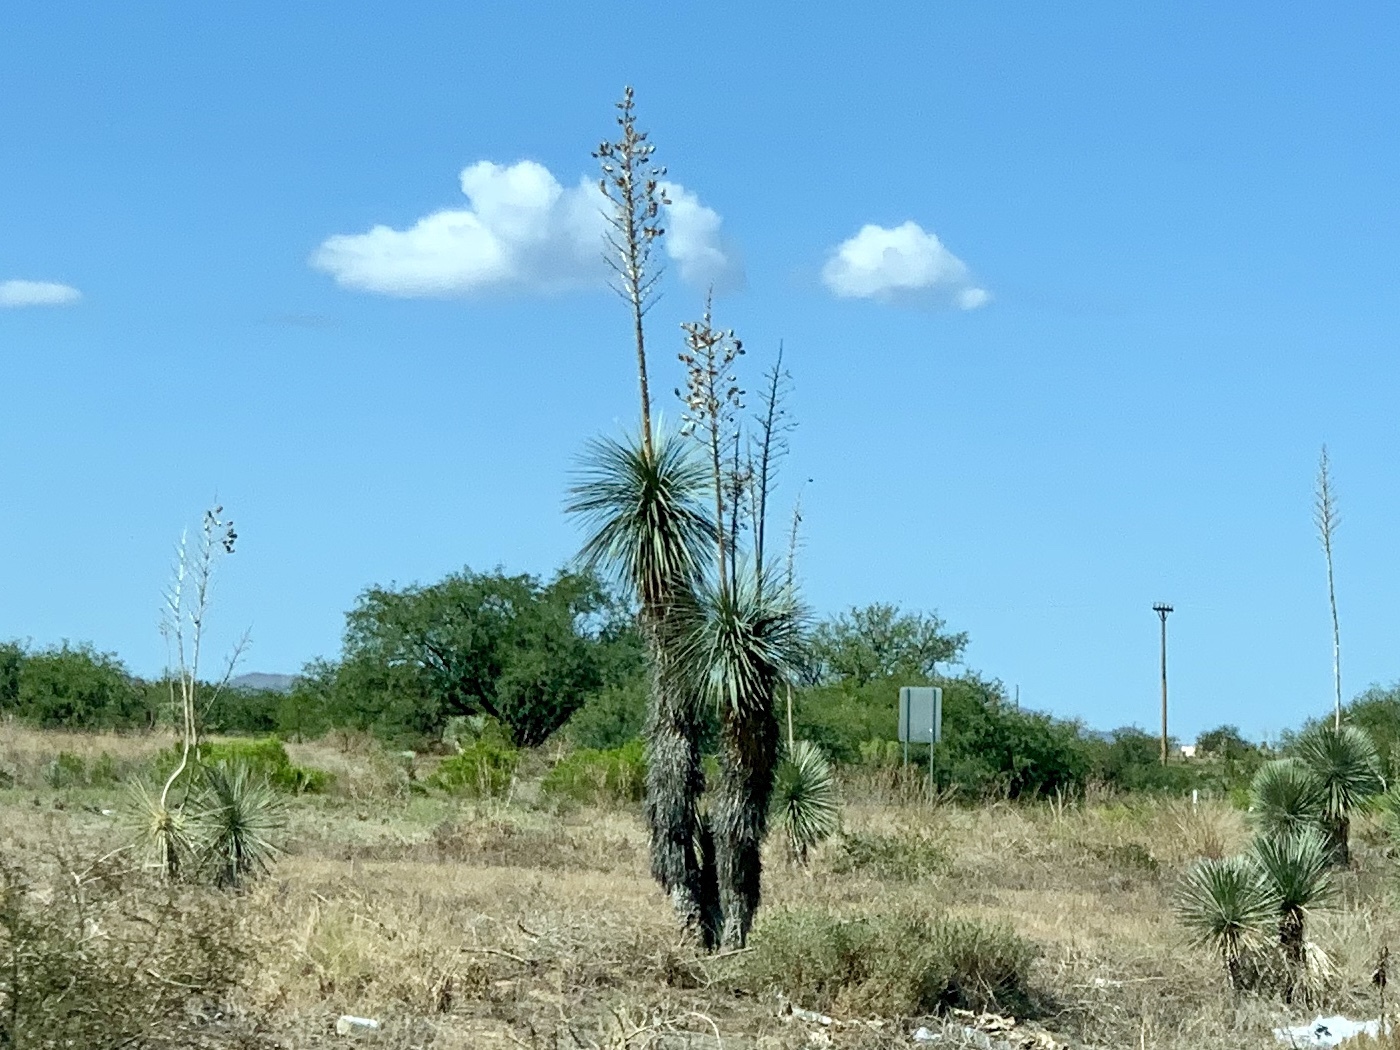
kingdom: Plantae
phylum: Tracheophyta
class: Liliopsida
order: Asparagales
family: Asparagaceae
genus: Yucca
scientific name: Yucca elata
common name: Palmella
